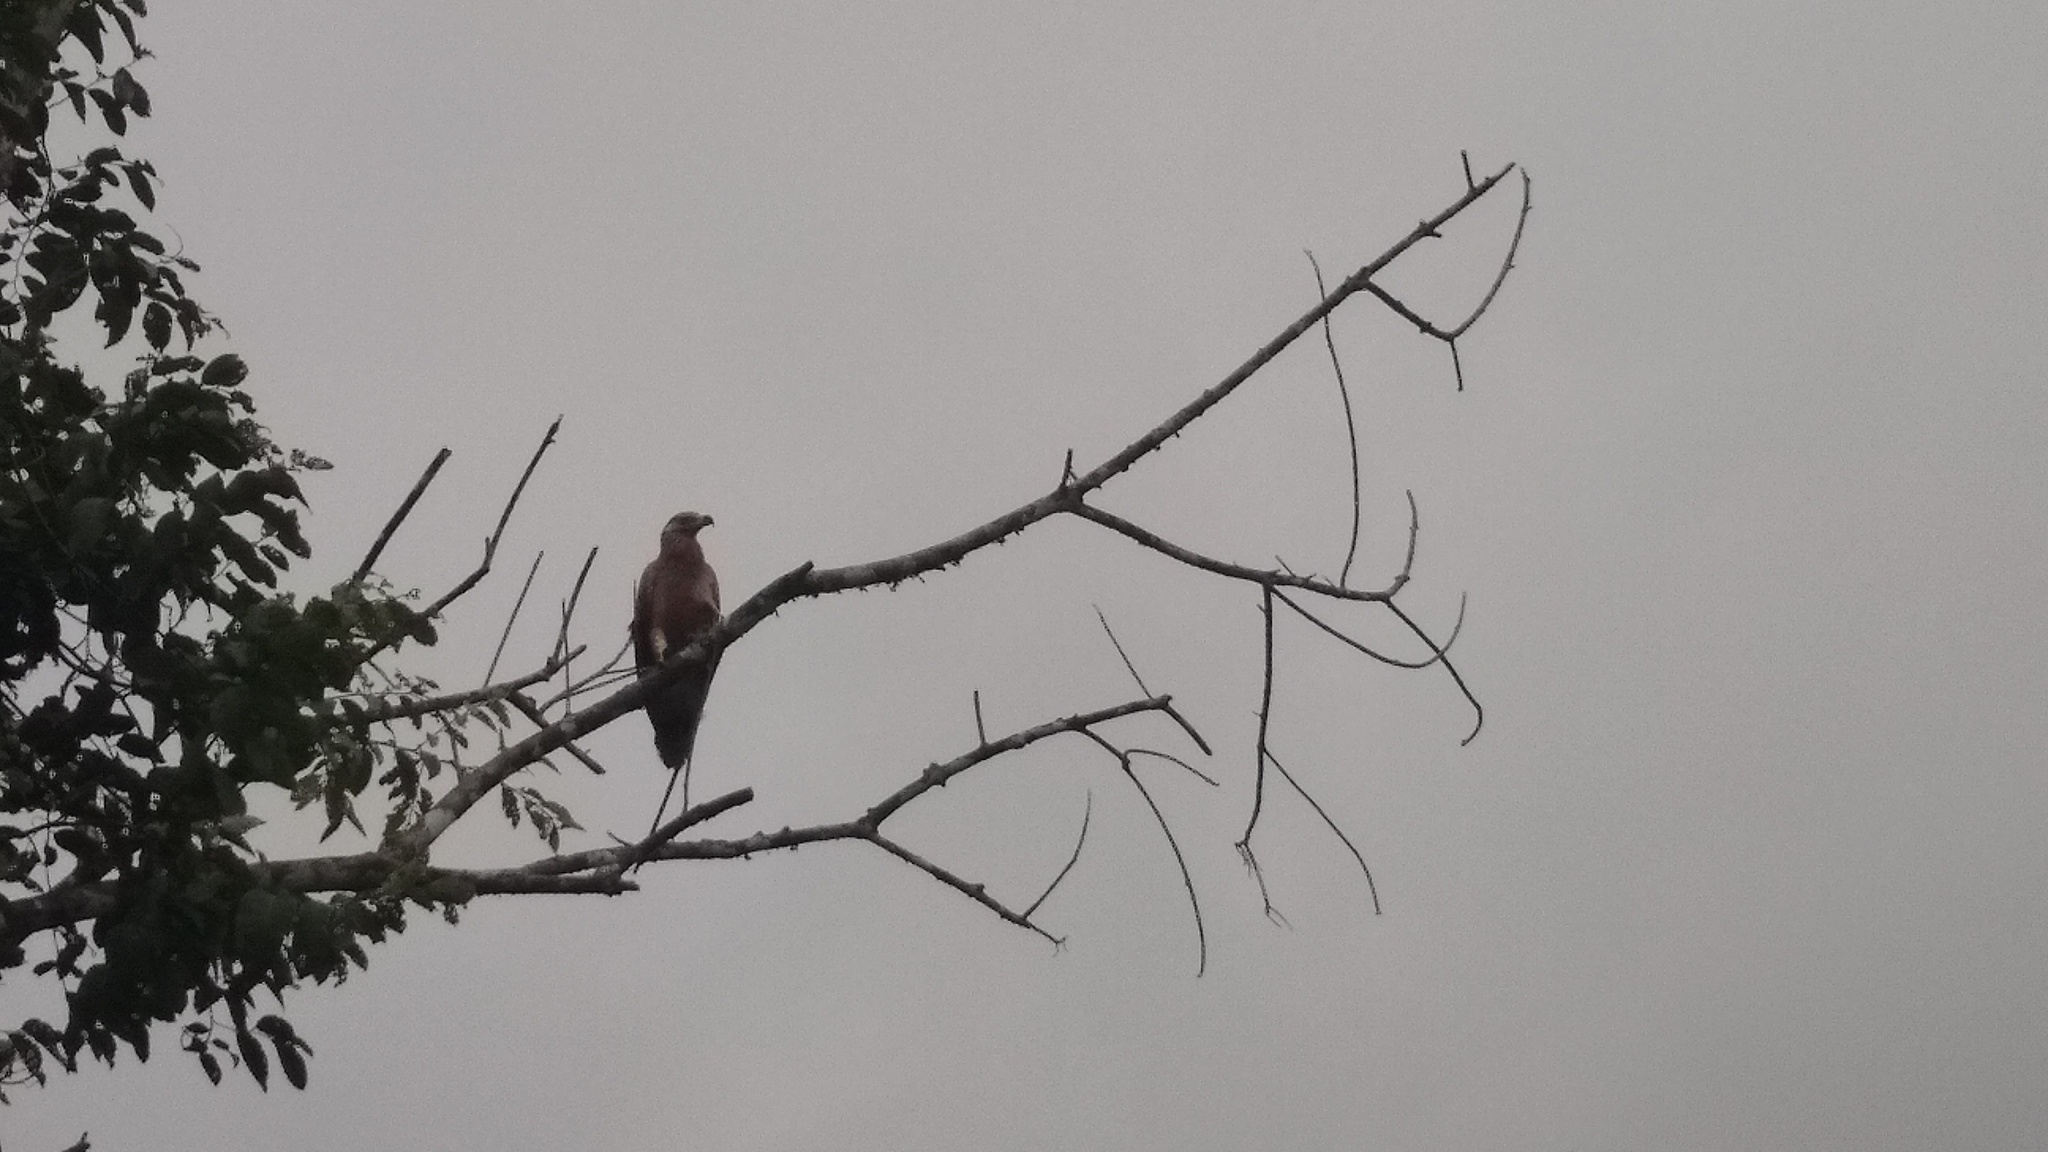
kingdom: Animalia
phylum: Chordata
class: Aves
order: Accipitriformes
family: Accipitridae
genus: Gypohierax
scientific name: Gypohierax angolensis
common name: Palm-nut vulture
